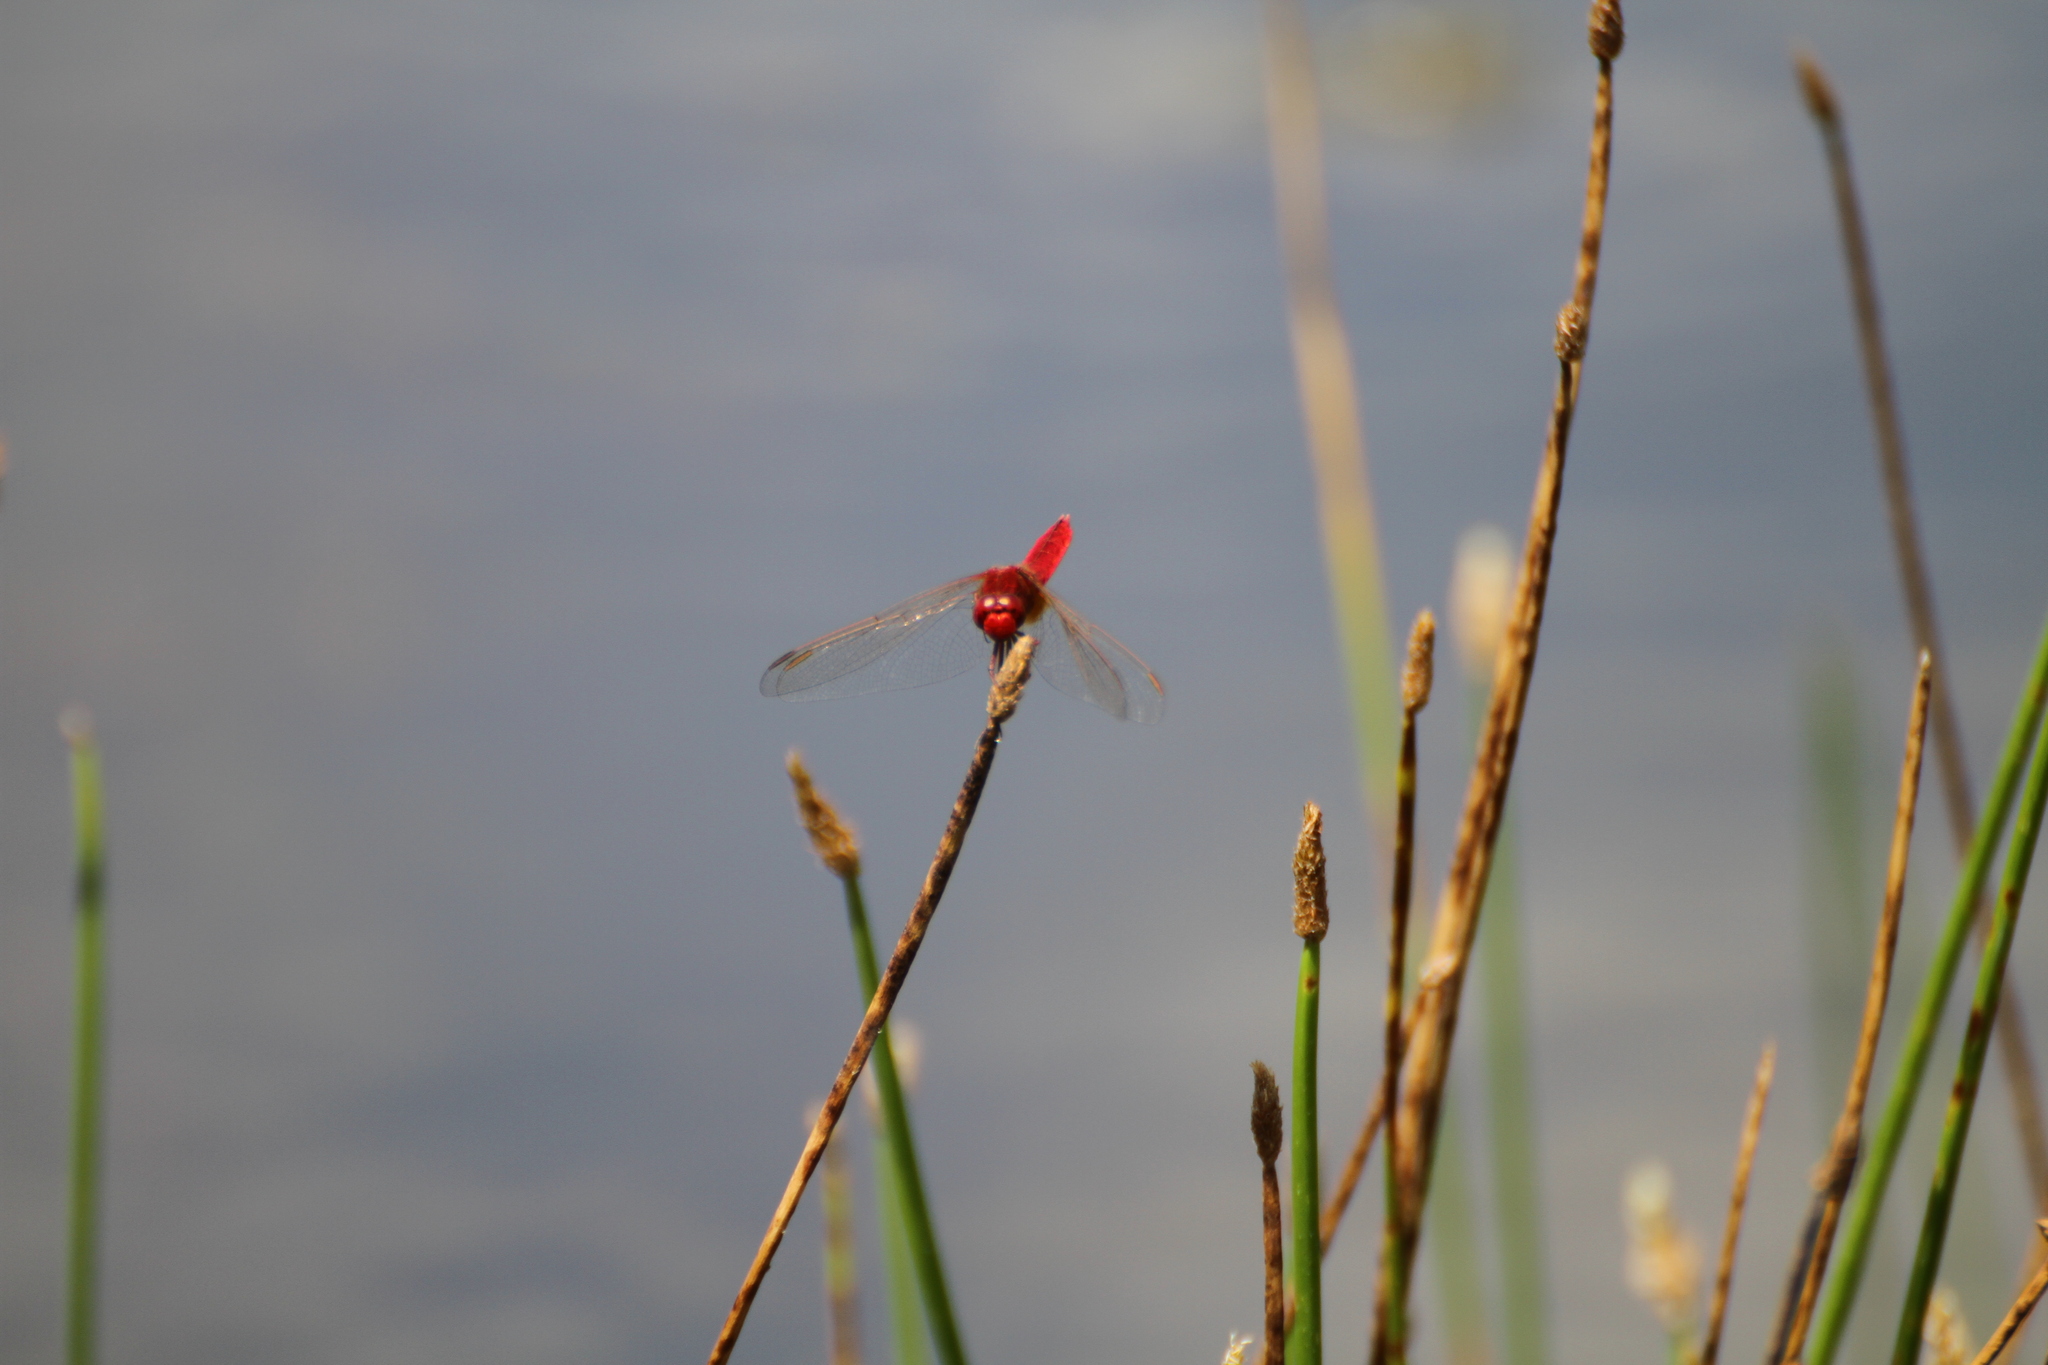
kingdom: Animalia
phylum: Arthropoda
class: Insecta
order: Odonata
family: Libellulidae
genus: Crocothemis
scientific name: Crocothemis erythraea
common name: Scarlet dragonfly
